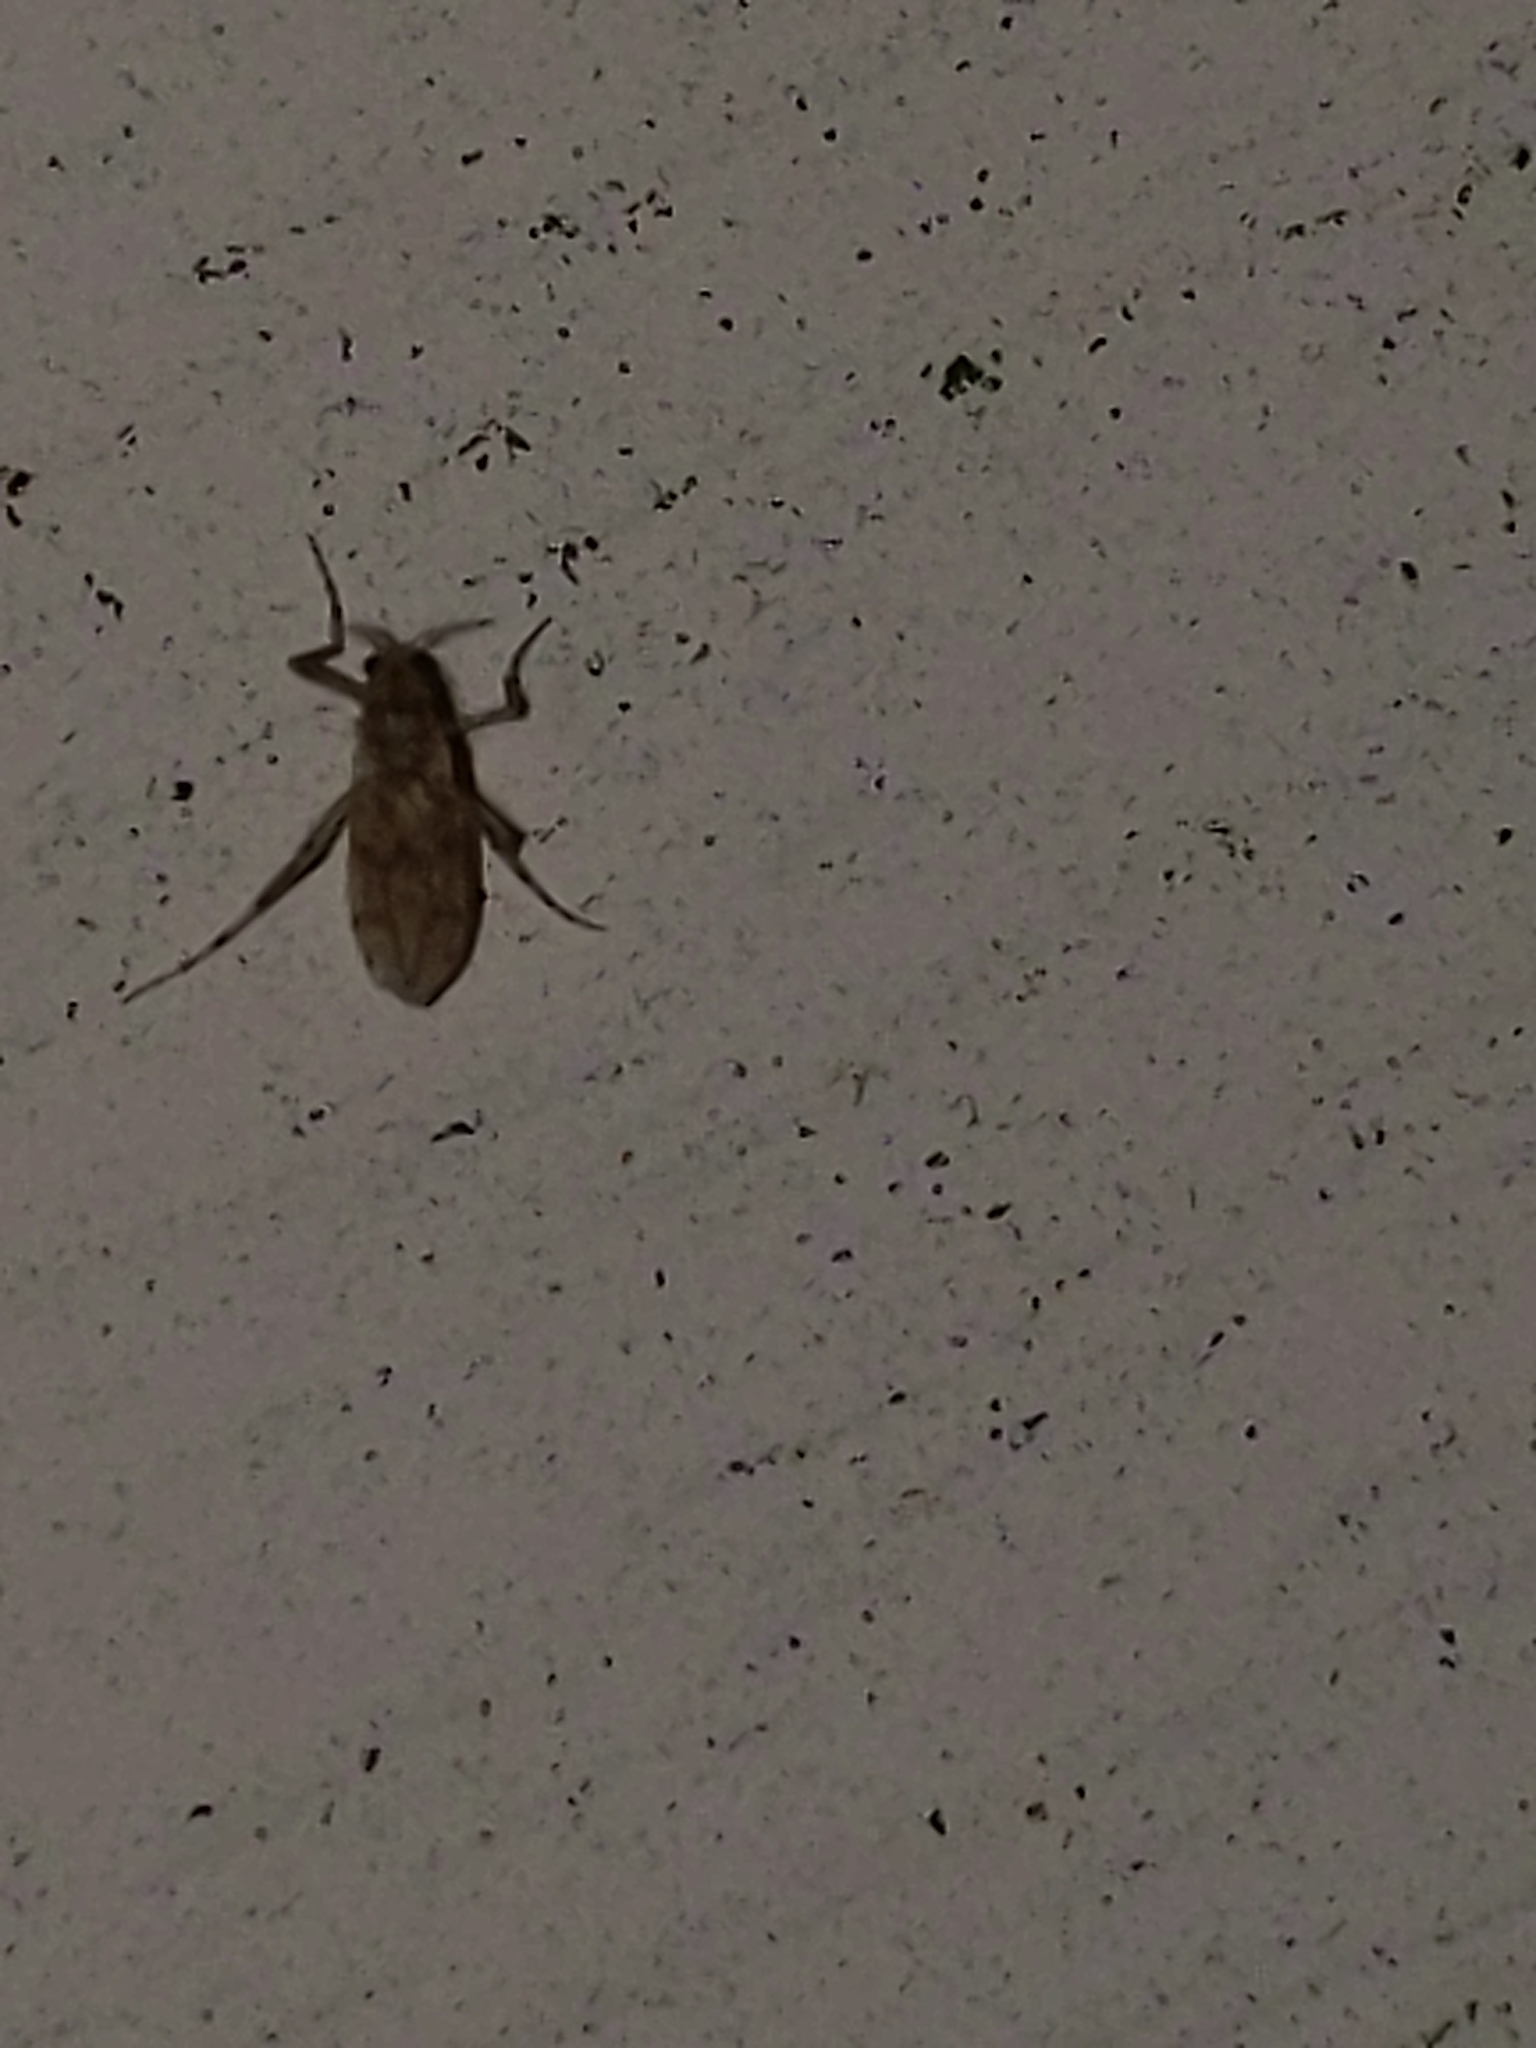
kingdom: Animalia
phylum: Arthropoda
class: Insecta
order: Diptera
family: Chaoboridae
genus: Chaoborus
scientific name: Chaoborus punctipennis
